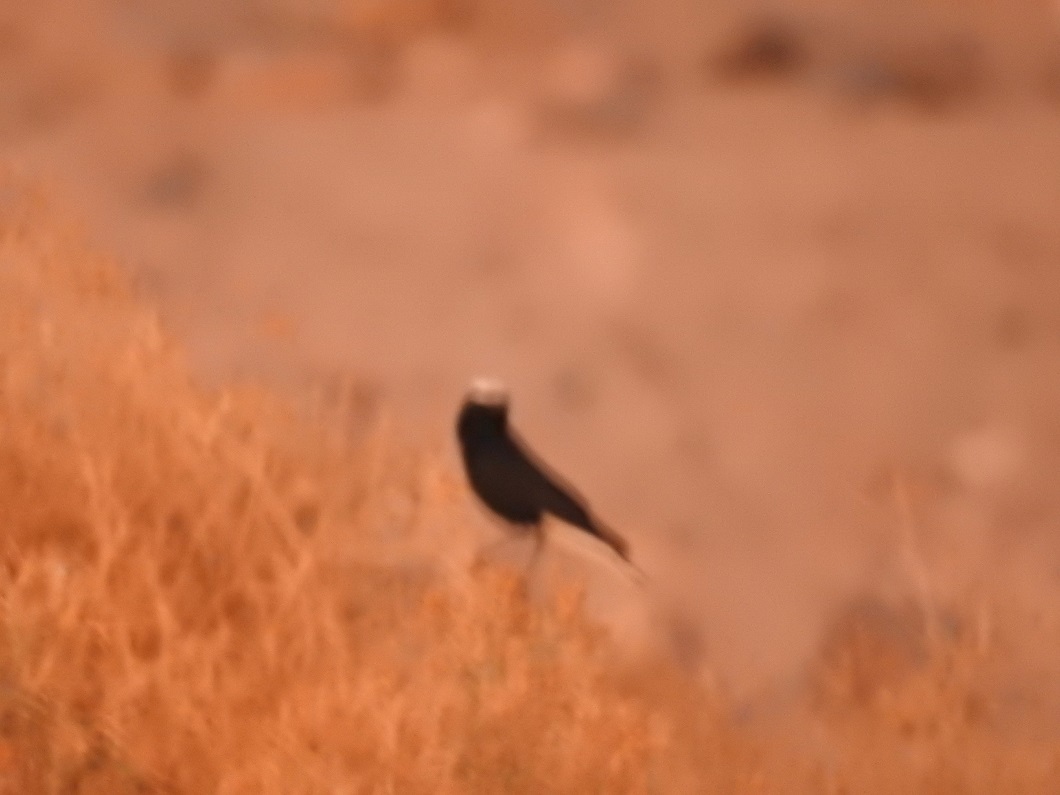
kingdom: Animalia
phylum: Chordata
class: Aves
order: Passeriformes
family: Muscicapidae
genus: Oenanthe
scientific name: Oenanthe leucopyga
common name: White-crowned wheatear
